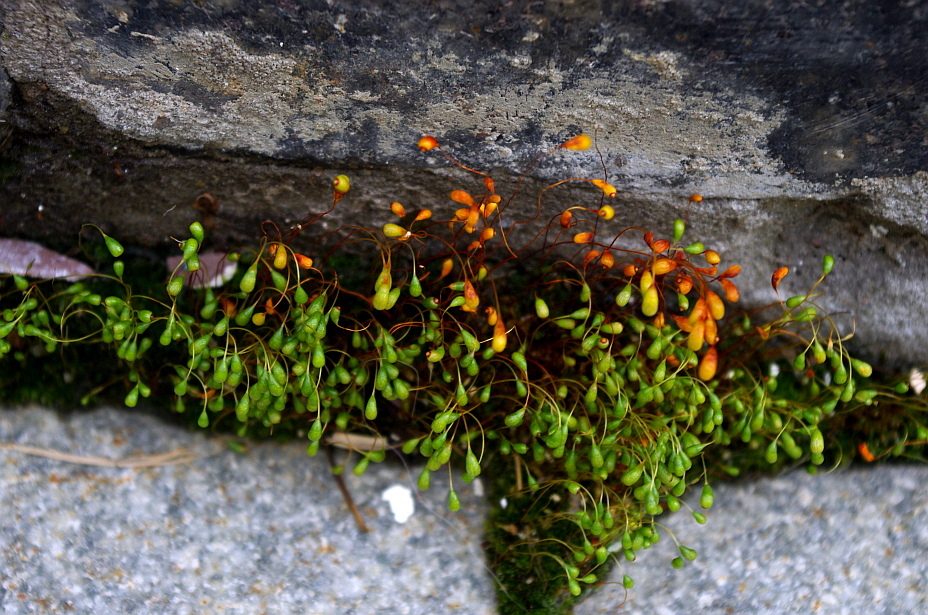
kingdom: Plantae
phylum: Bryophyta
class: Bryopsida
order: Funariales
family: Funariaceae
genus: Funaria
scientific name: Funaria hygrometrica
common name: Common cord moss
